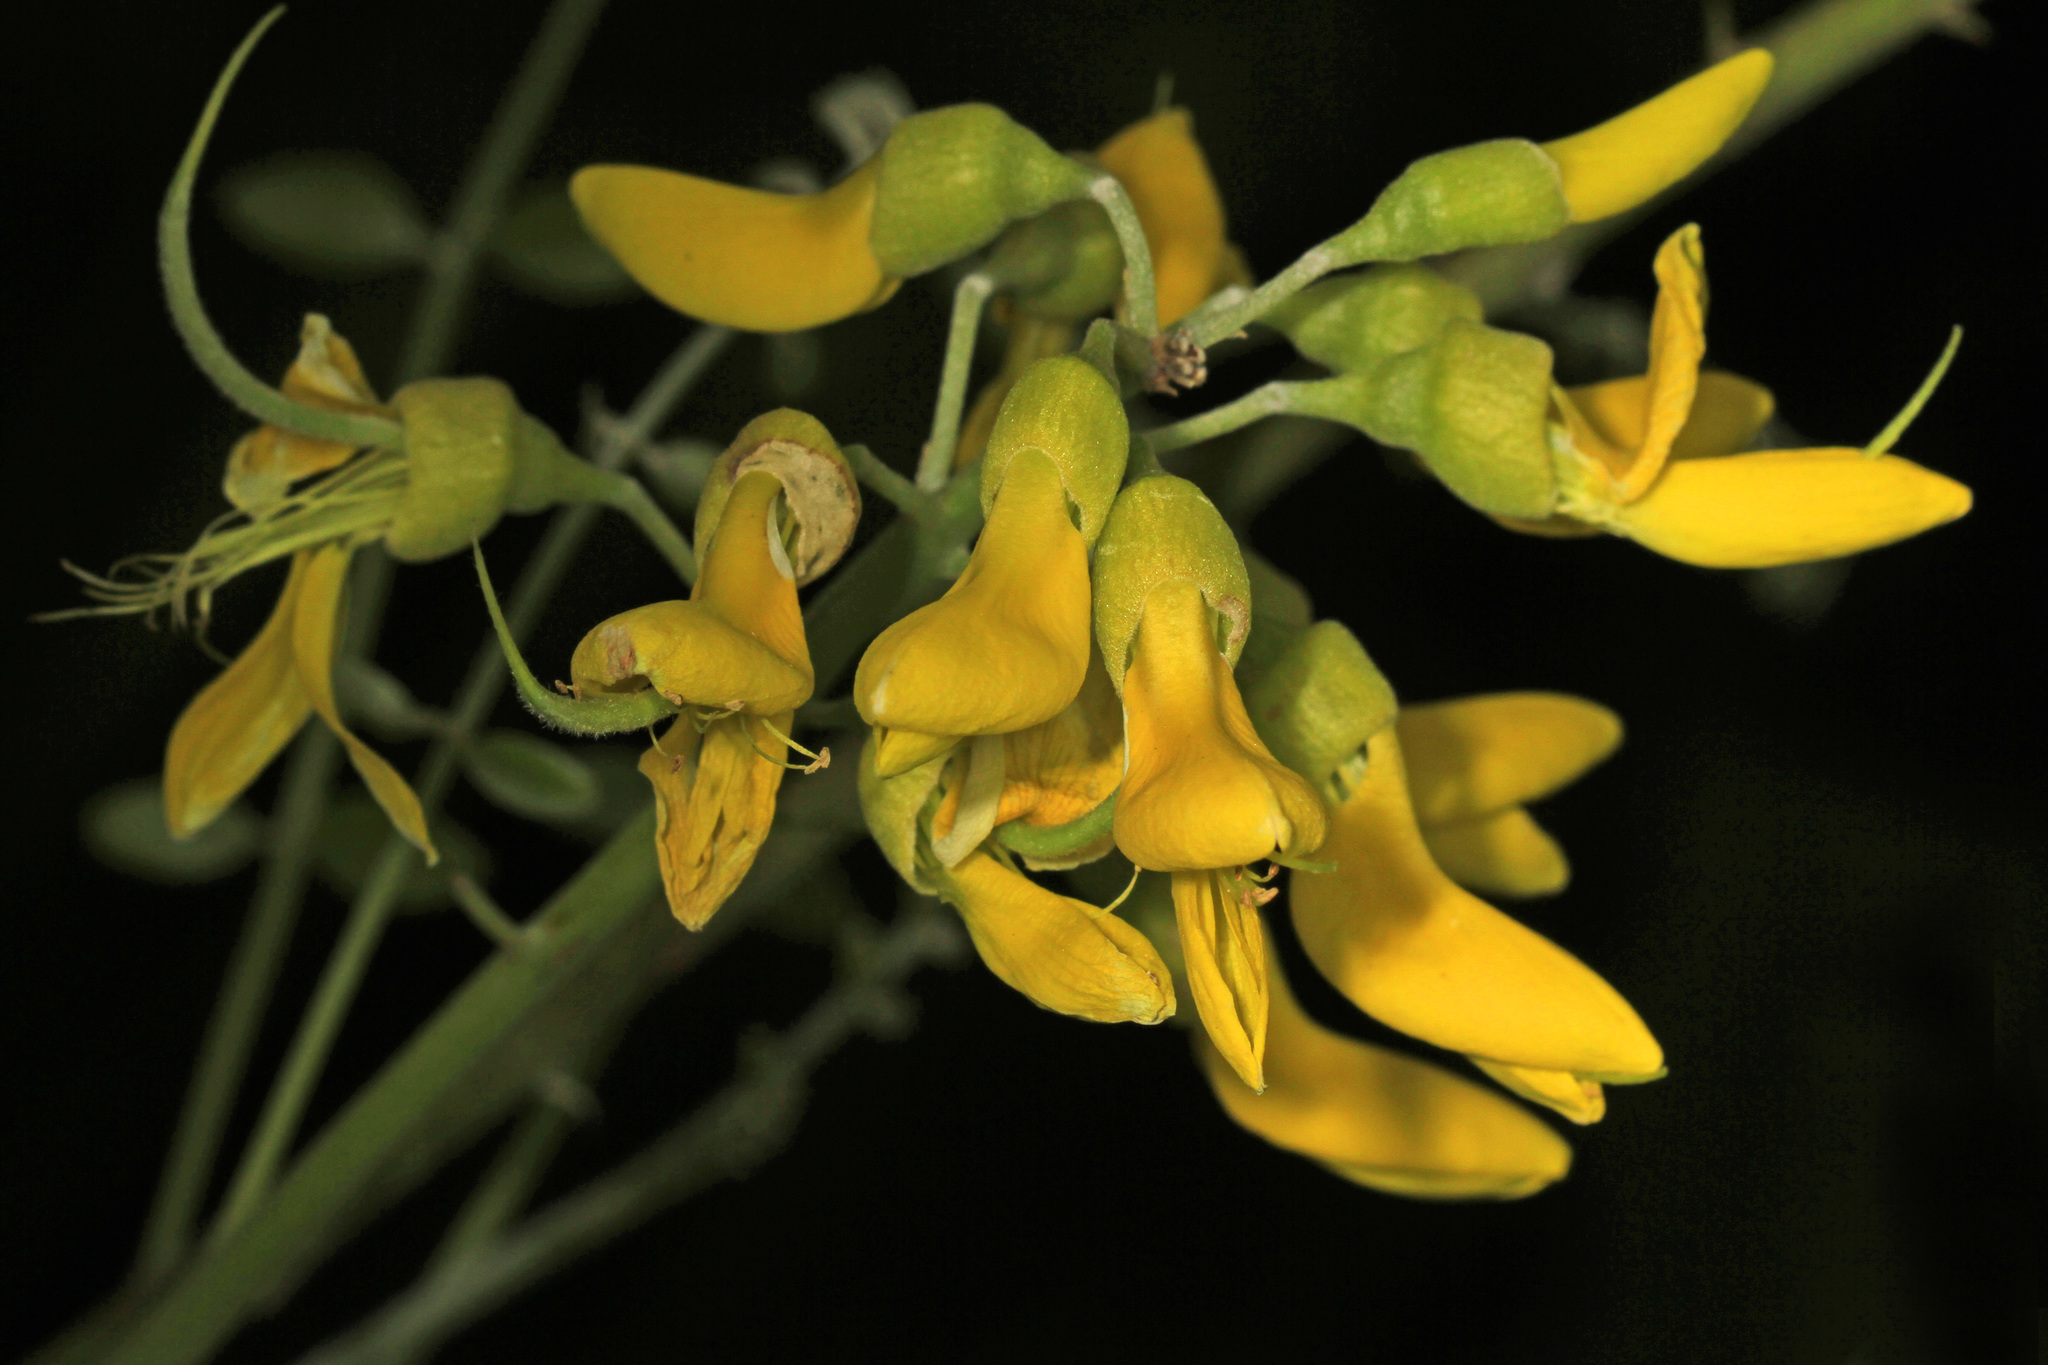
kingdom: Plantae
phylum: Tracheophyta
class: Magnoliopsida
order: Fabales
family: Fabaceae
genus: Sophora
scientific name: Sophora tomentosa
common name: Yellow necklacepod
